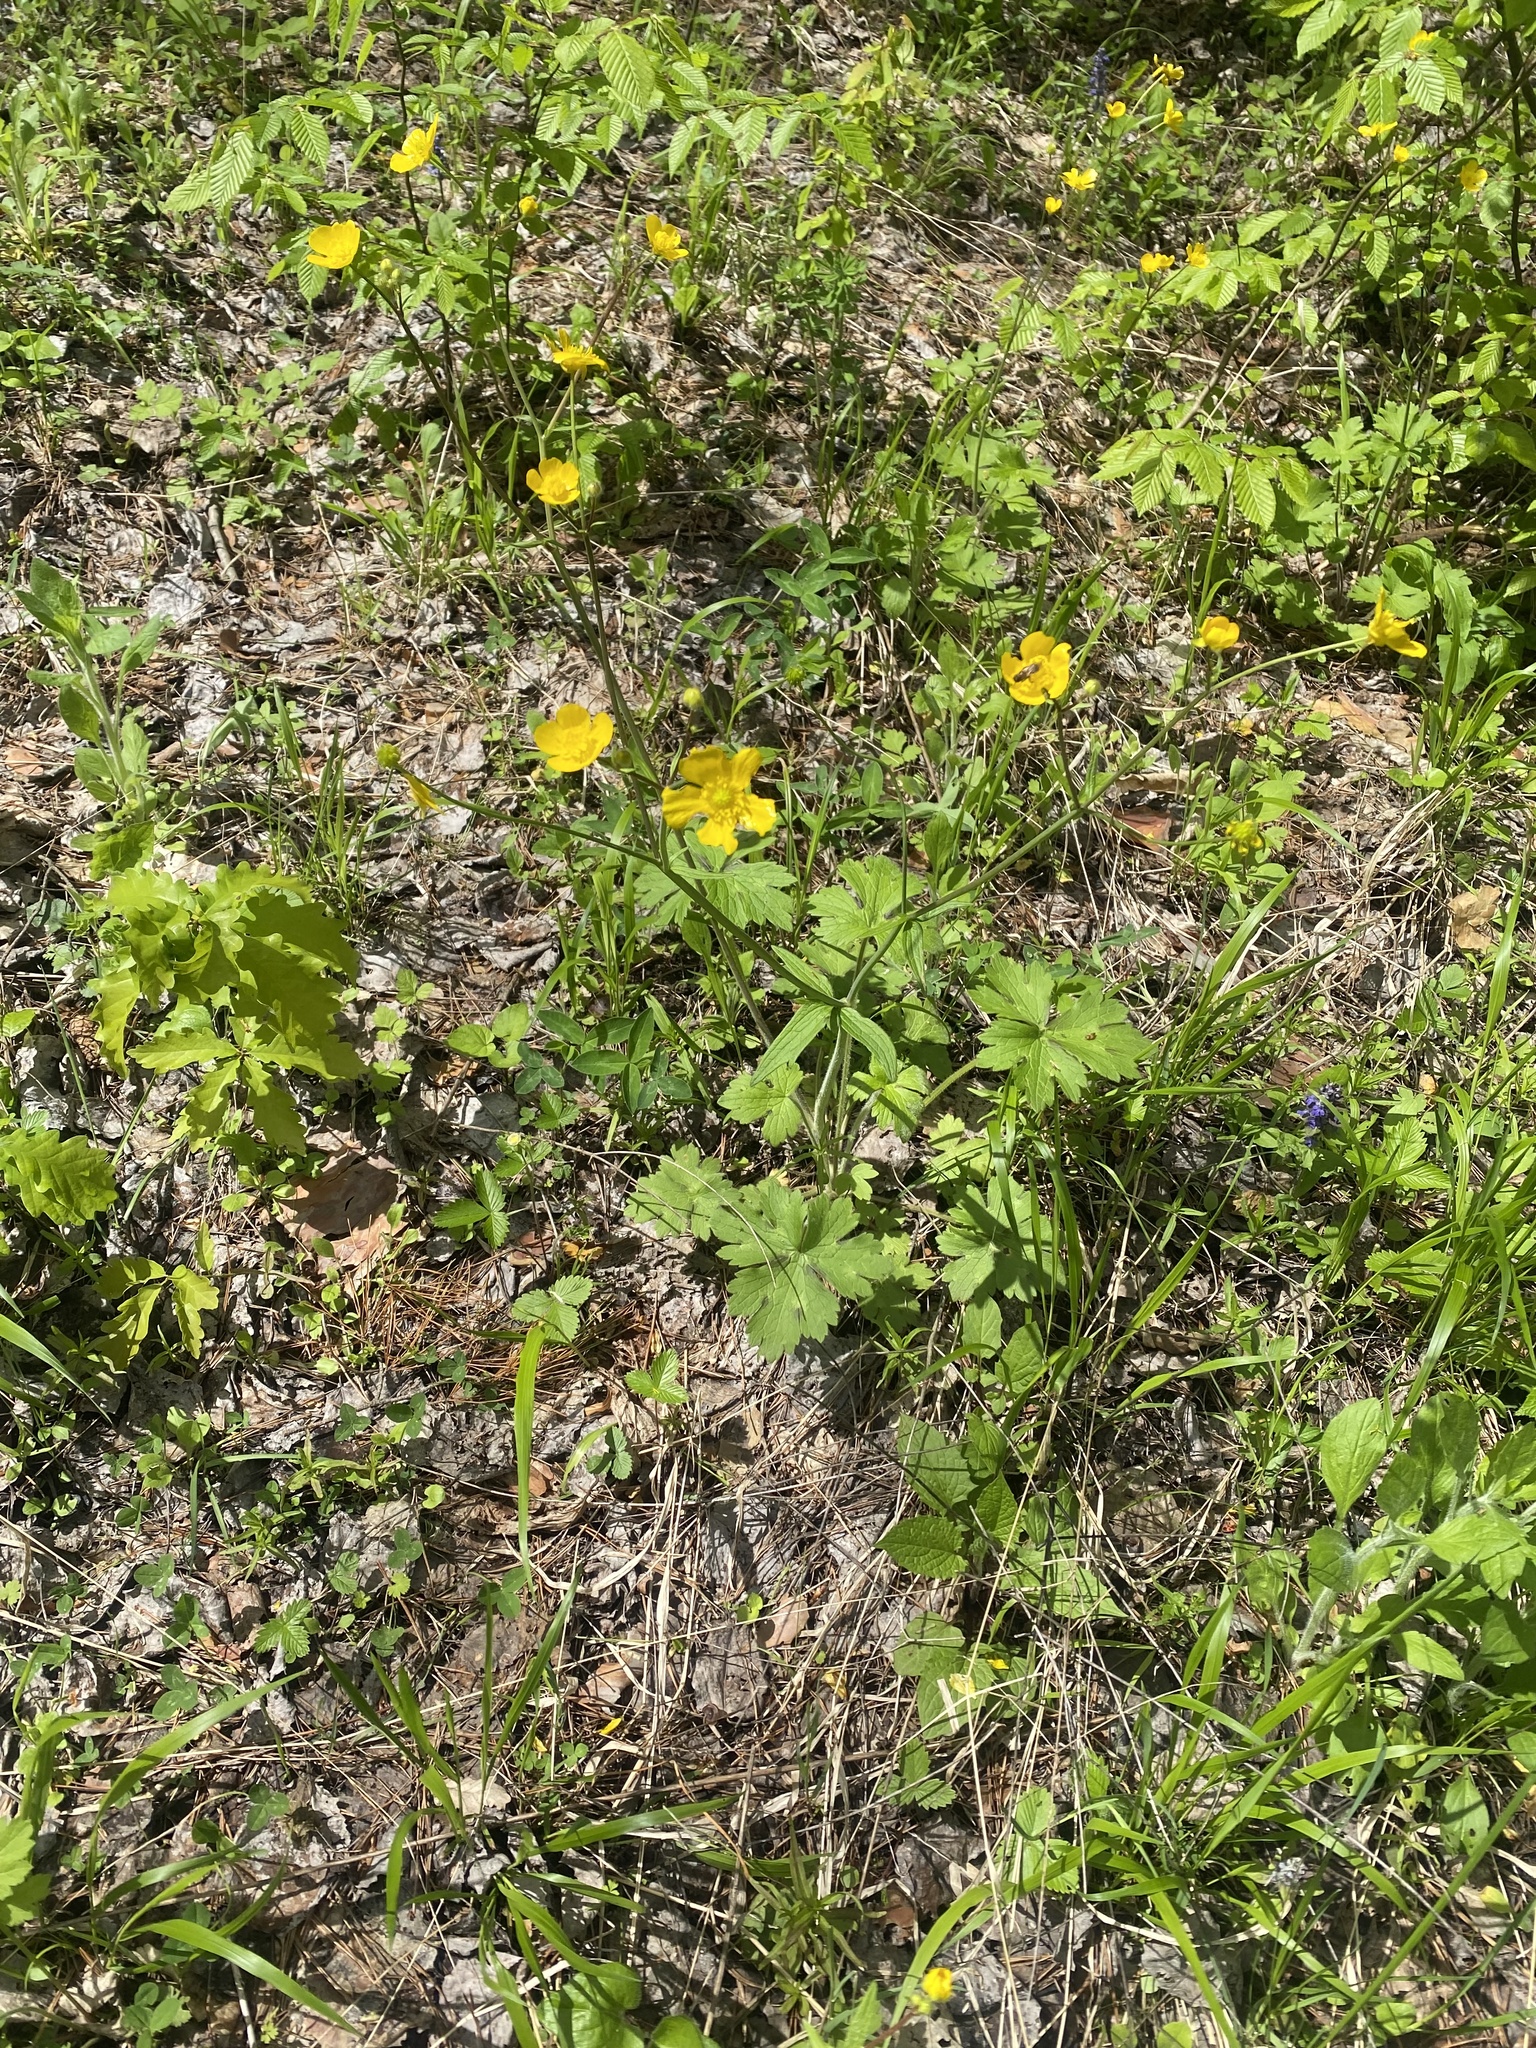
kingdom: Plantae
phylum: Tracheophyta
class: Magnoliopsida
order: Ranunculales
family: Ranunculaceae
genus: Ranunculus
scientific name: Ranunculus constantinopolitanus
